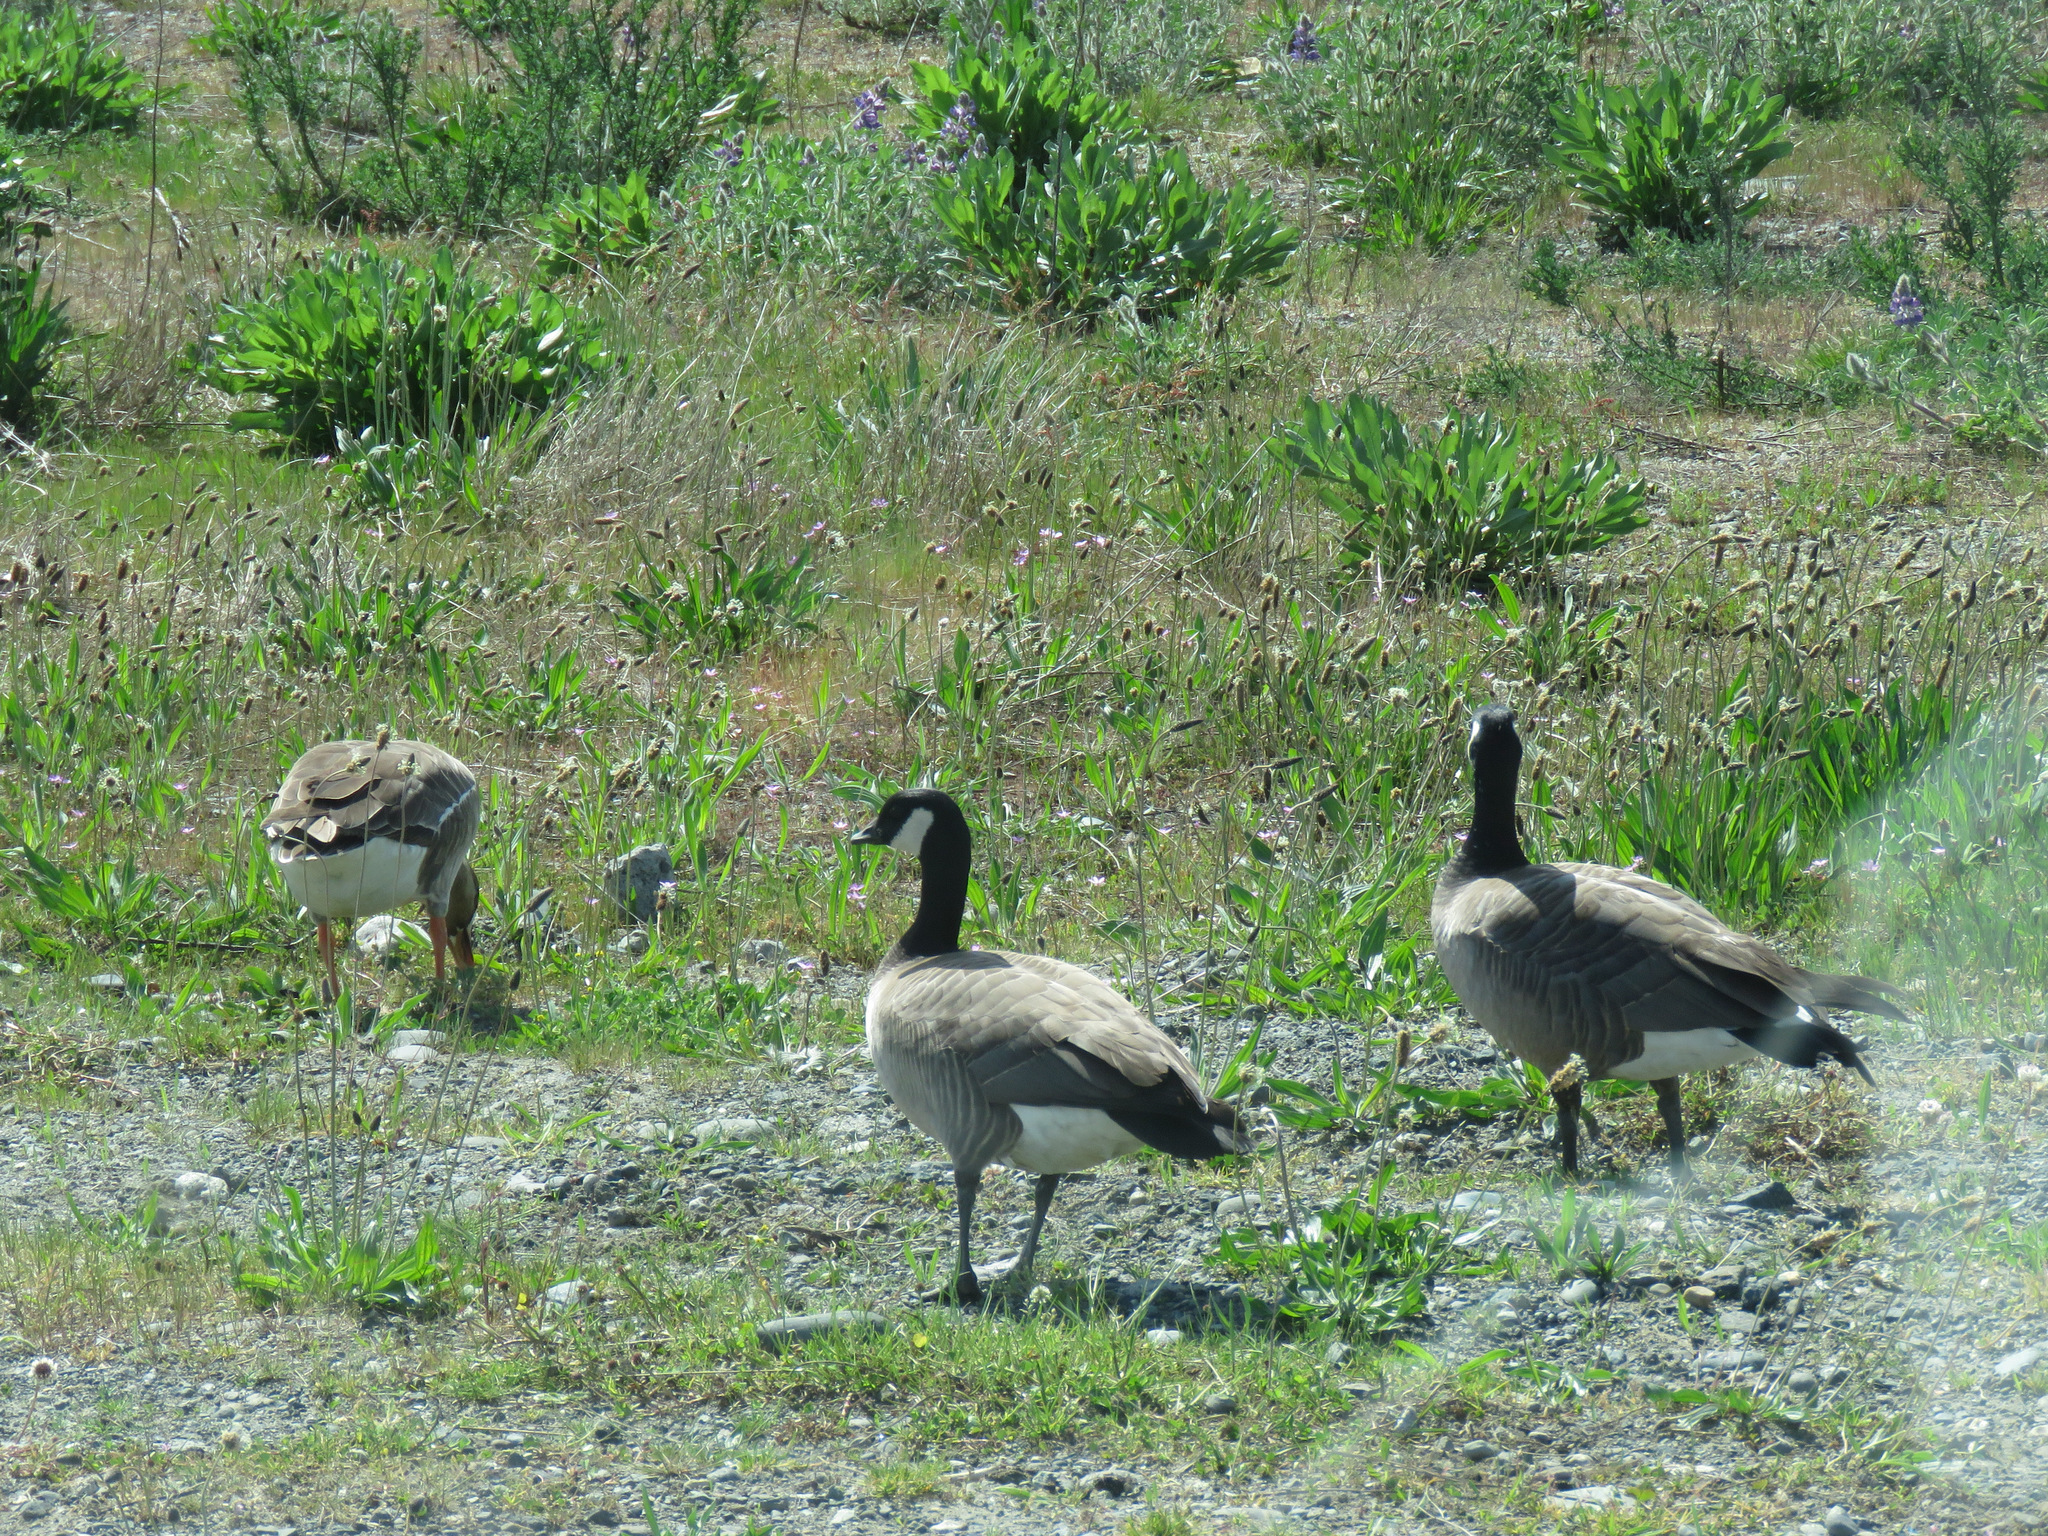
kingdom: Animalia
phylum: Chordata
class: Aves
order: Anseriformes
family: Anatidae
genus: Branta
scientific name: Branta hutchinsii
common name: Cackling goose
